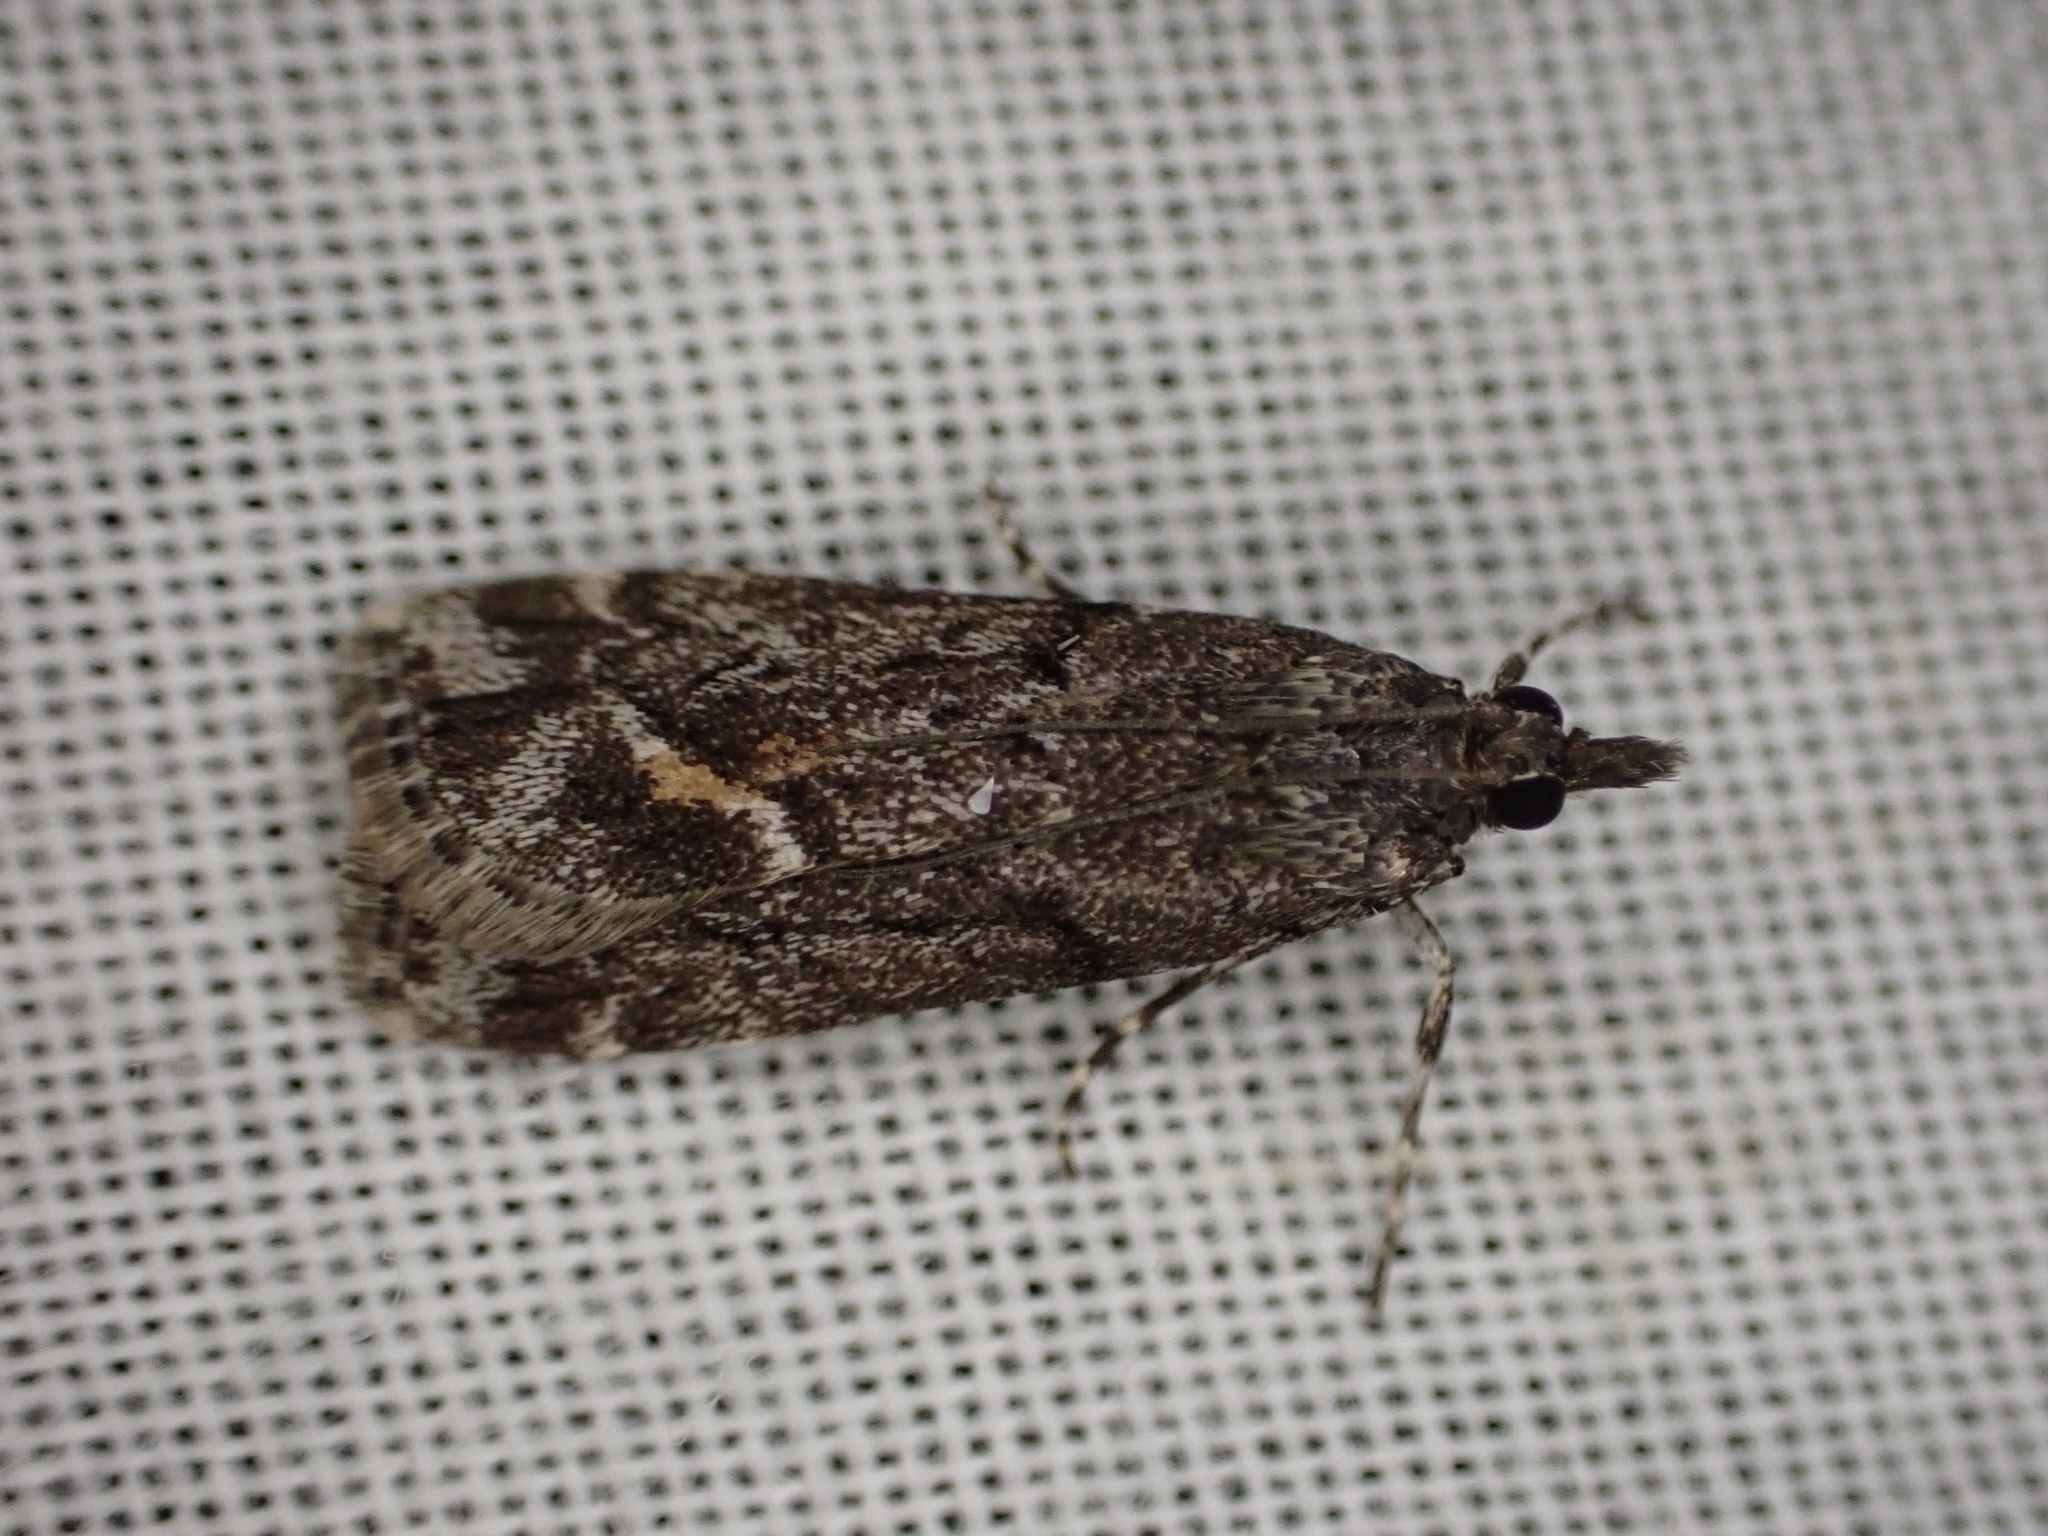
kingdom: Animalia
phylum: Arthropoda
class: Insecta
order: Lepidoptera
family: Crambidae
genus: Eudonia
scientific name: Eudonia submarginalis
